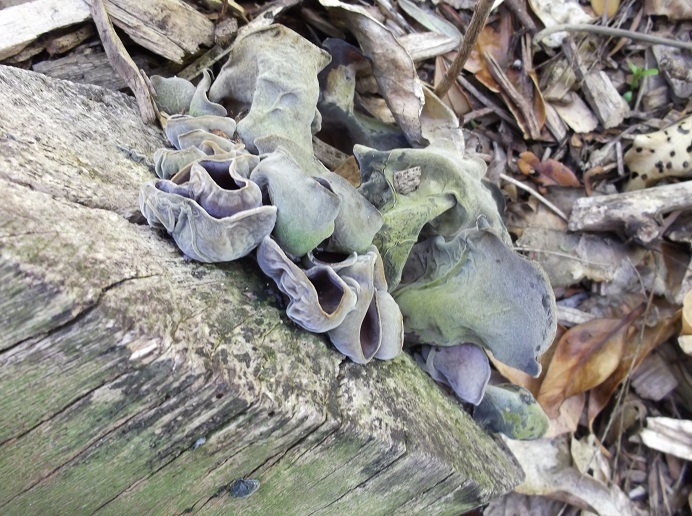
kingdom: Fungi
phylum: Basidiomycota
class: Agaricomycetes
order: Auriculariales
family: Auriculariaceae
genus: Auricularia
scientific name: Auricularia cornea
